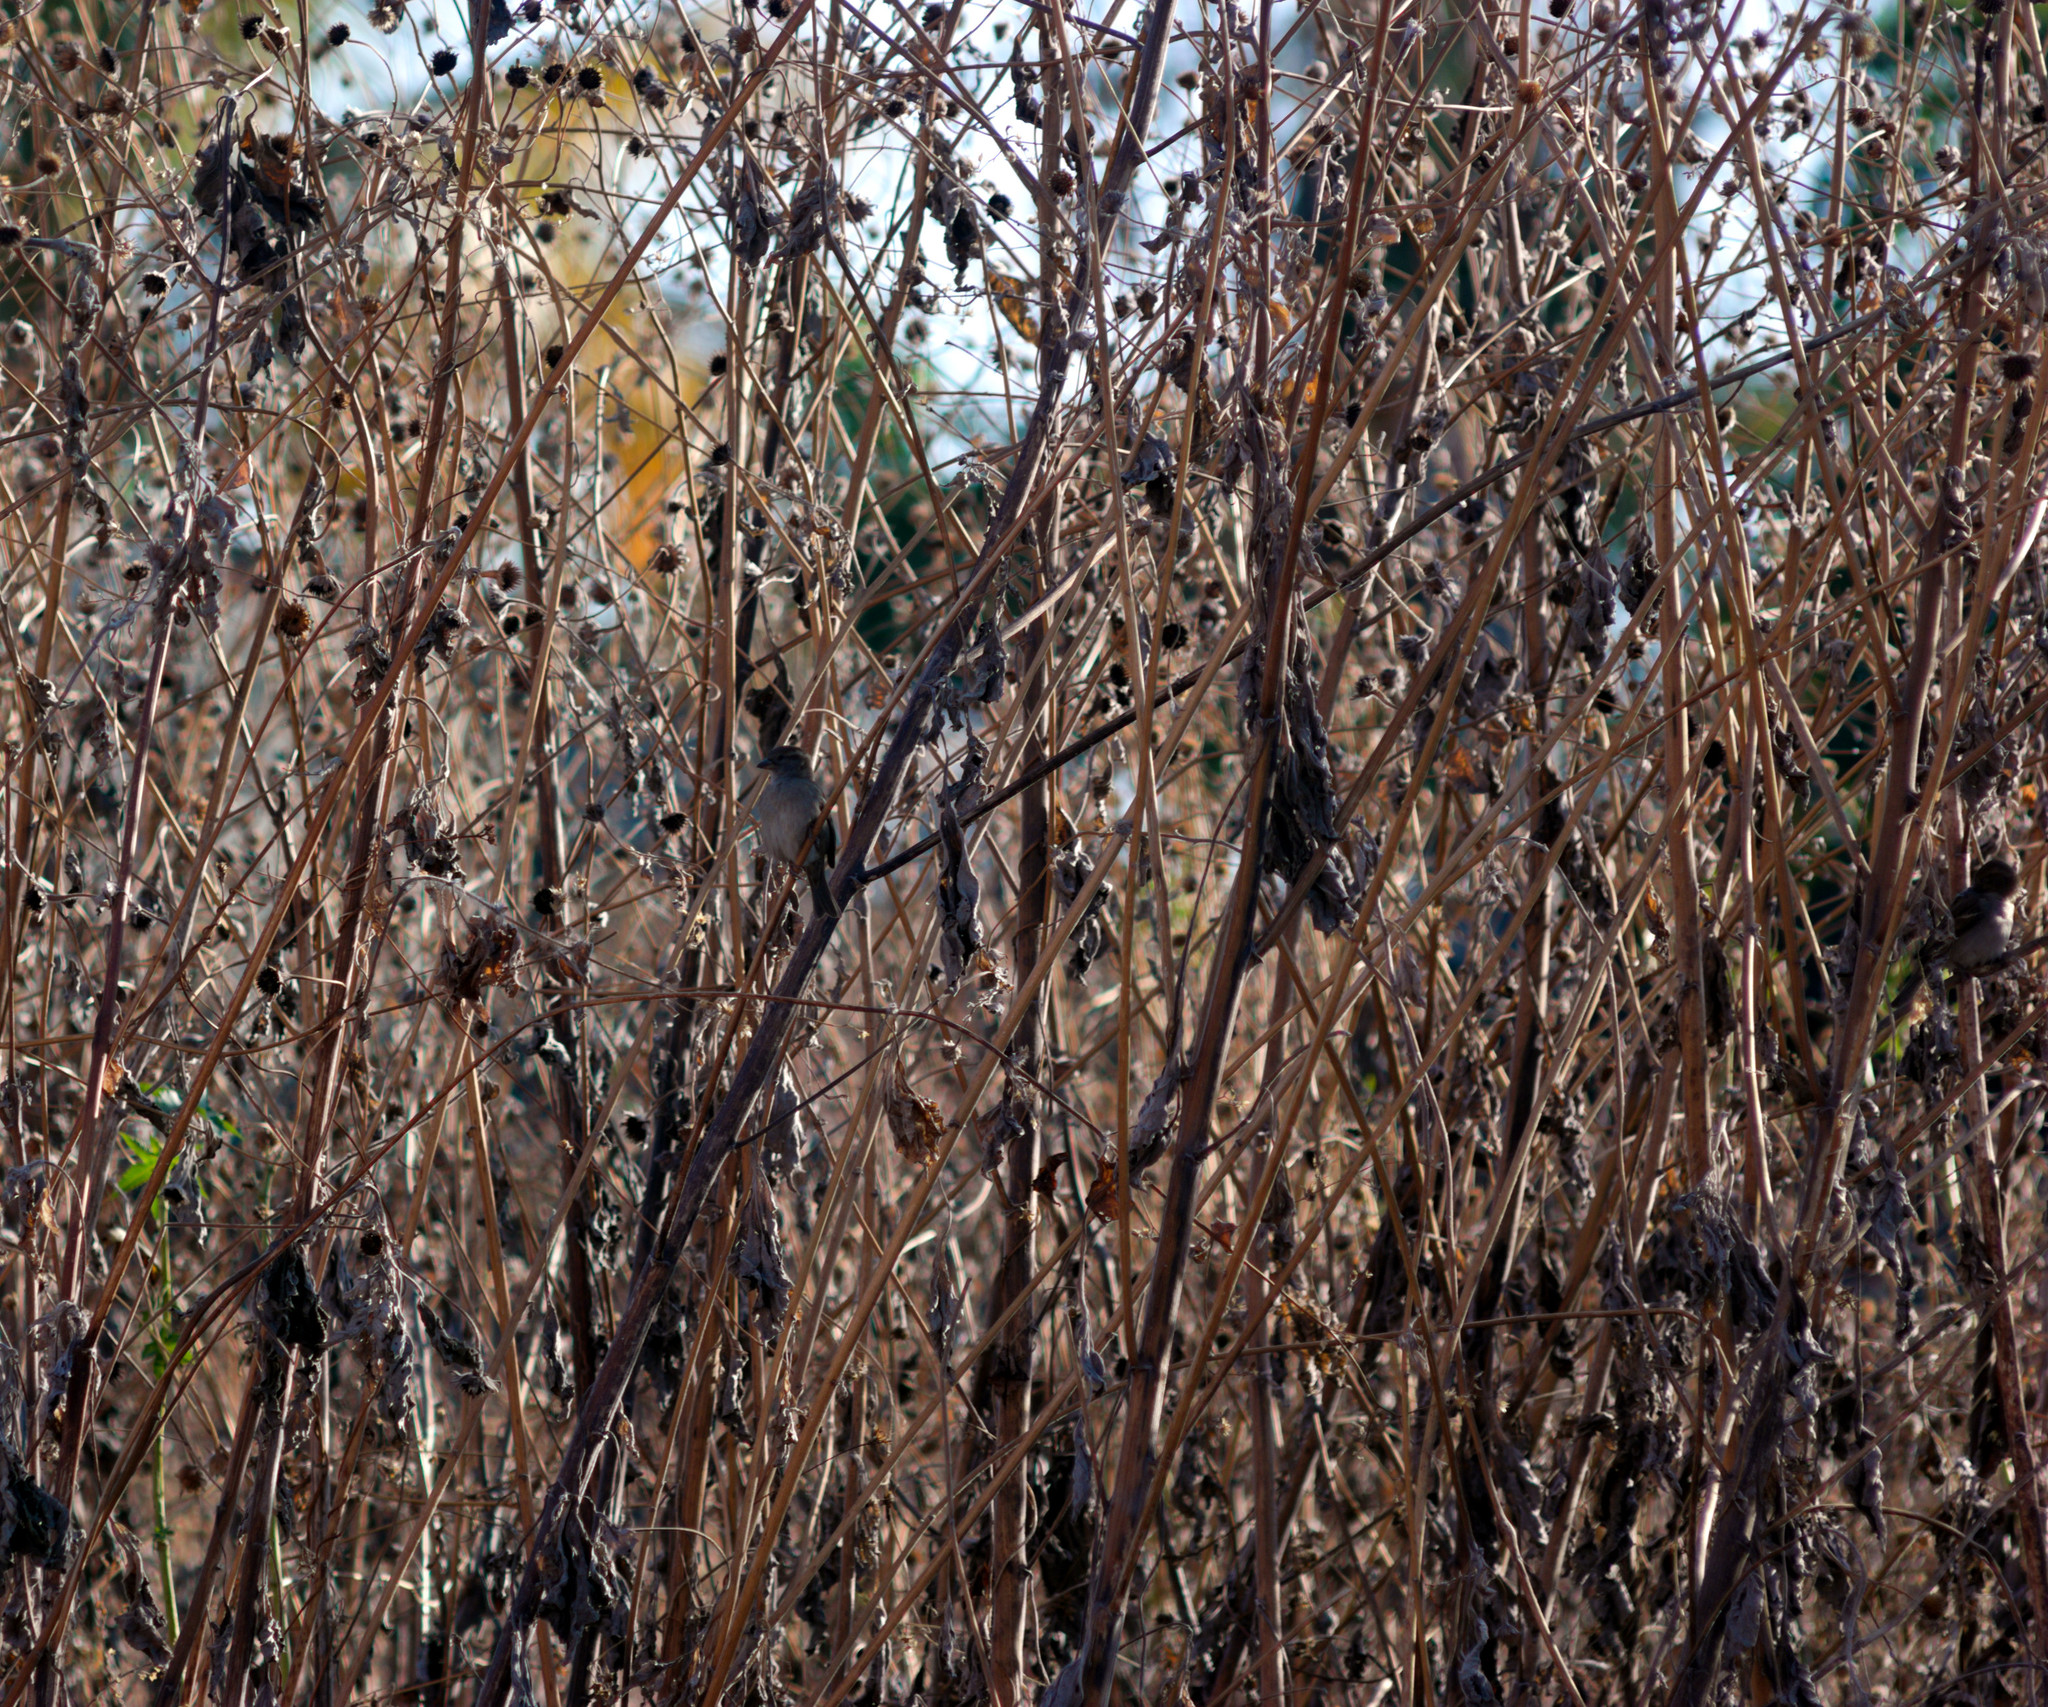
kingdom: Animalia
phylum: Chordata
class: Aves
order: Passeriformes
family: Passeridae
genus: Passer
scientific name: Passer domesticus
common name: House sparrow
